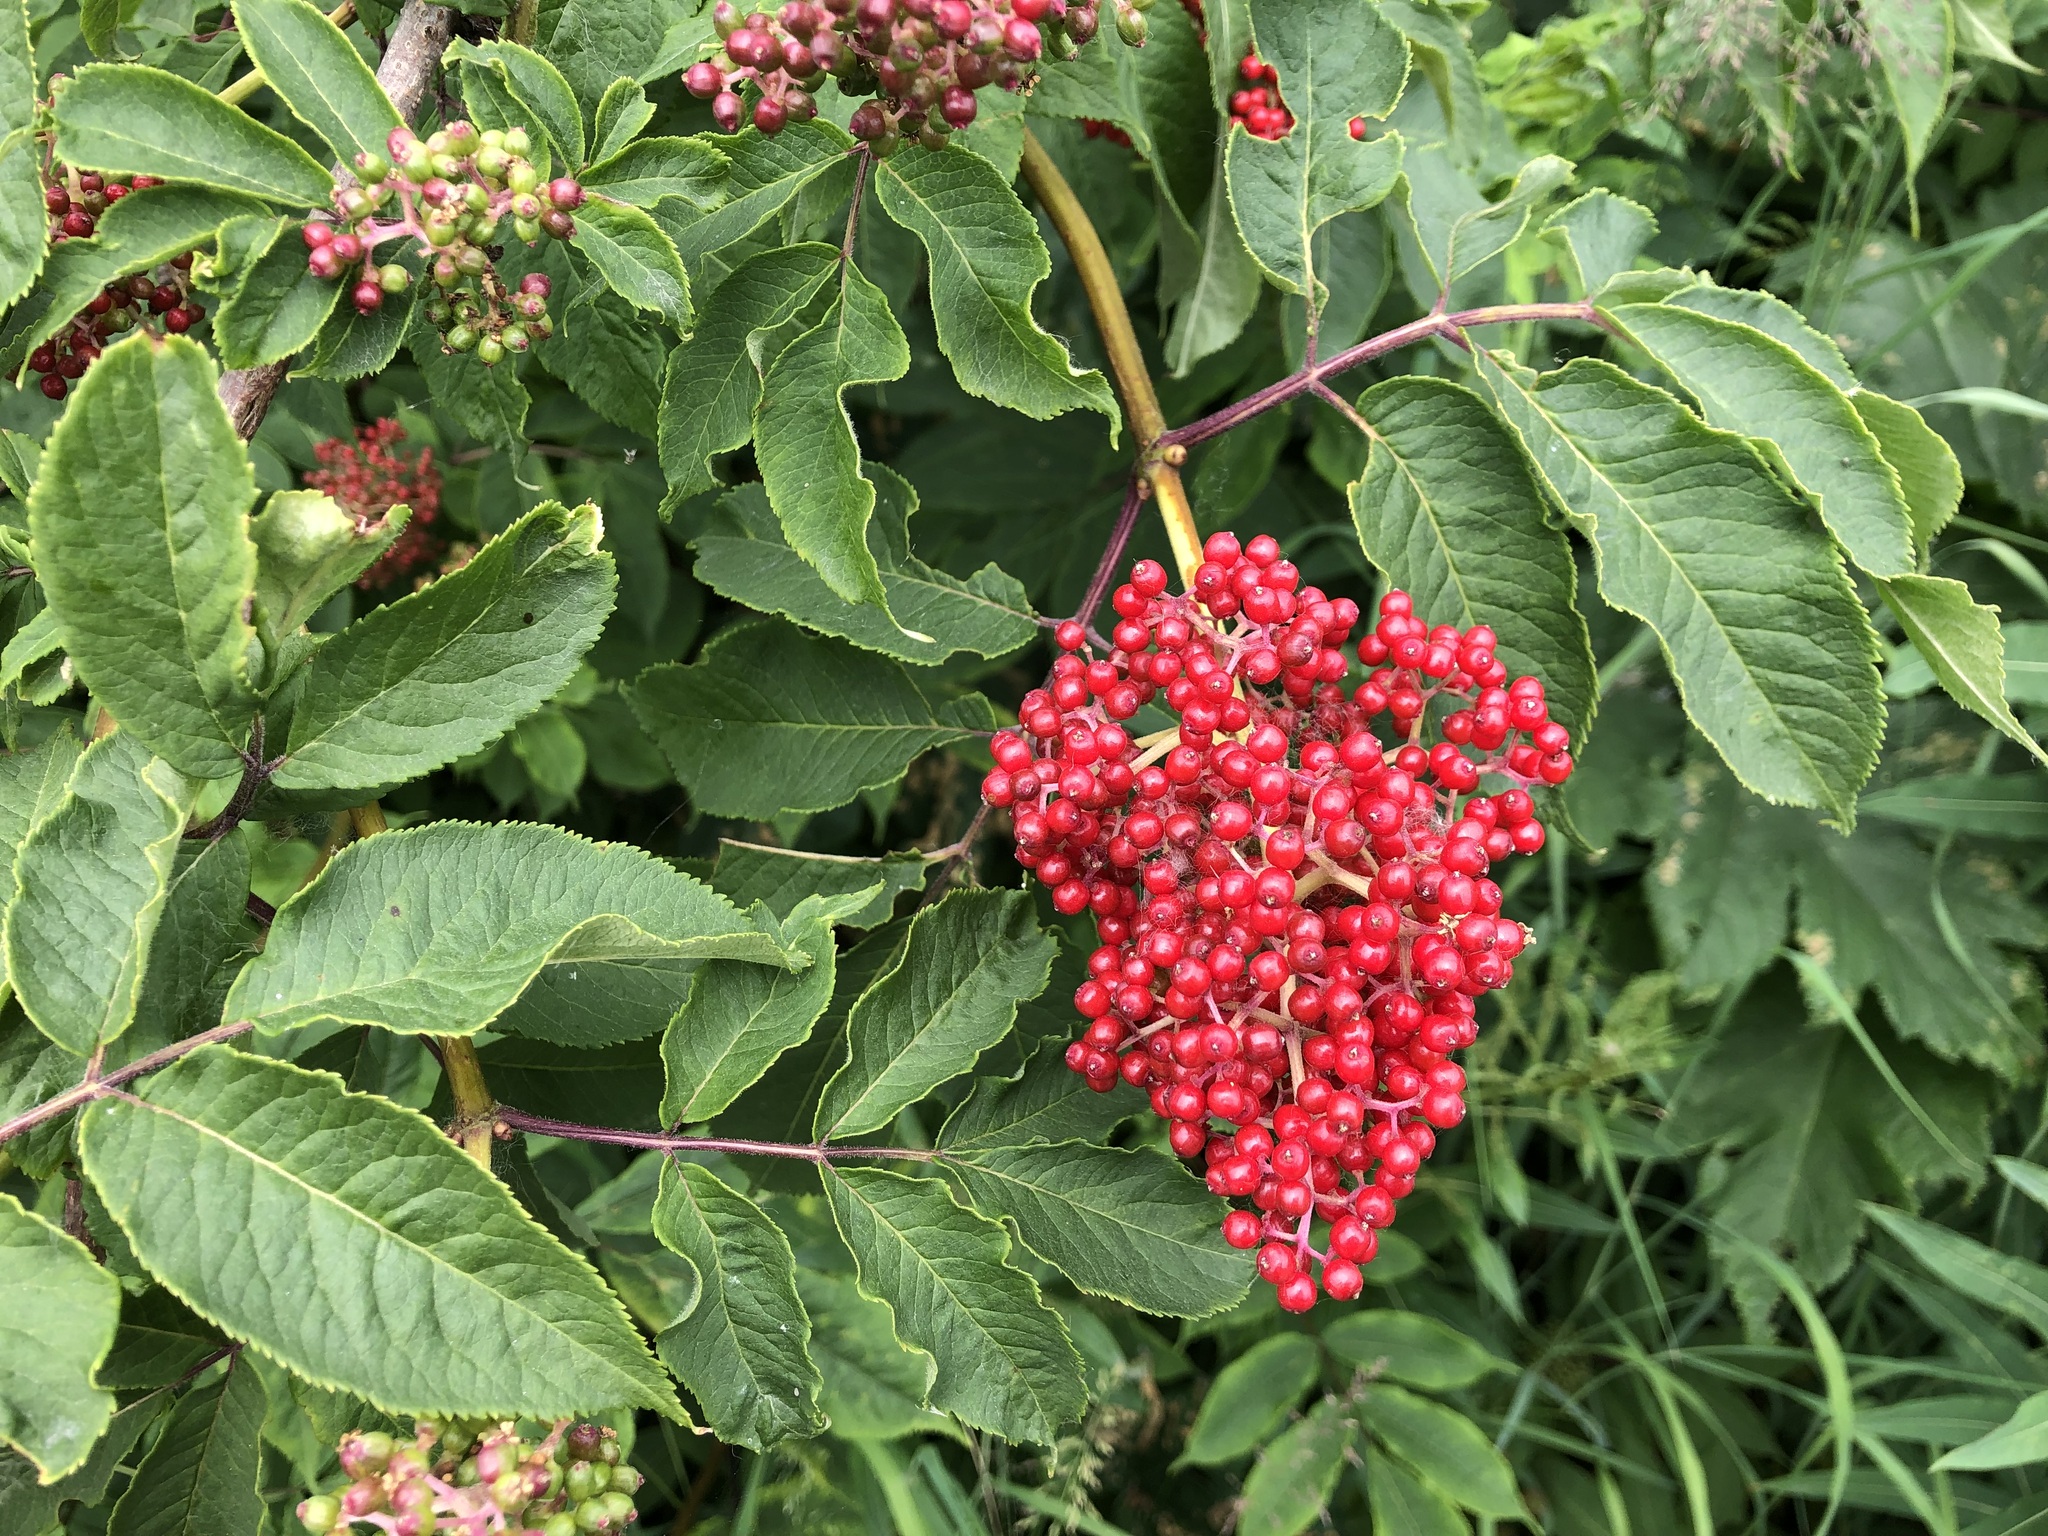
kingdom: Plantae
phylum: Tracheophyta
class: Magnoliopsida
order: Dipsacales
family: Viburnaceae
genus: Sambucus
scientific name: Sambucus racemosa
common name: Red-berried elder
